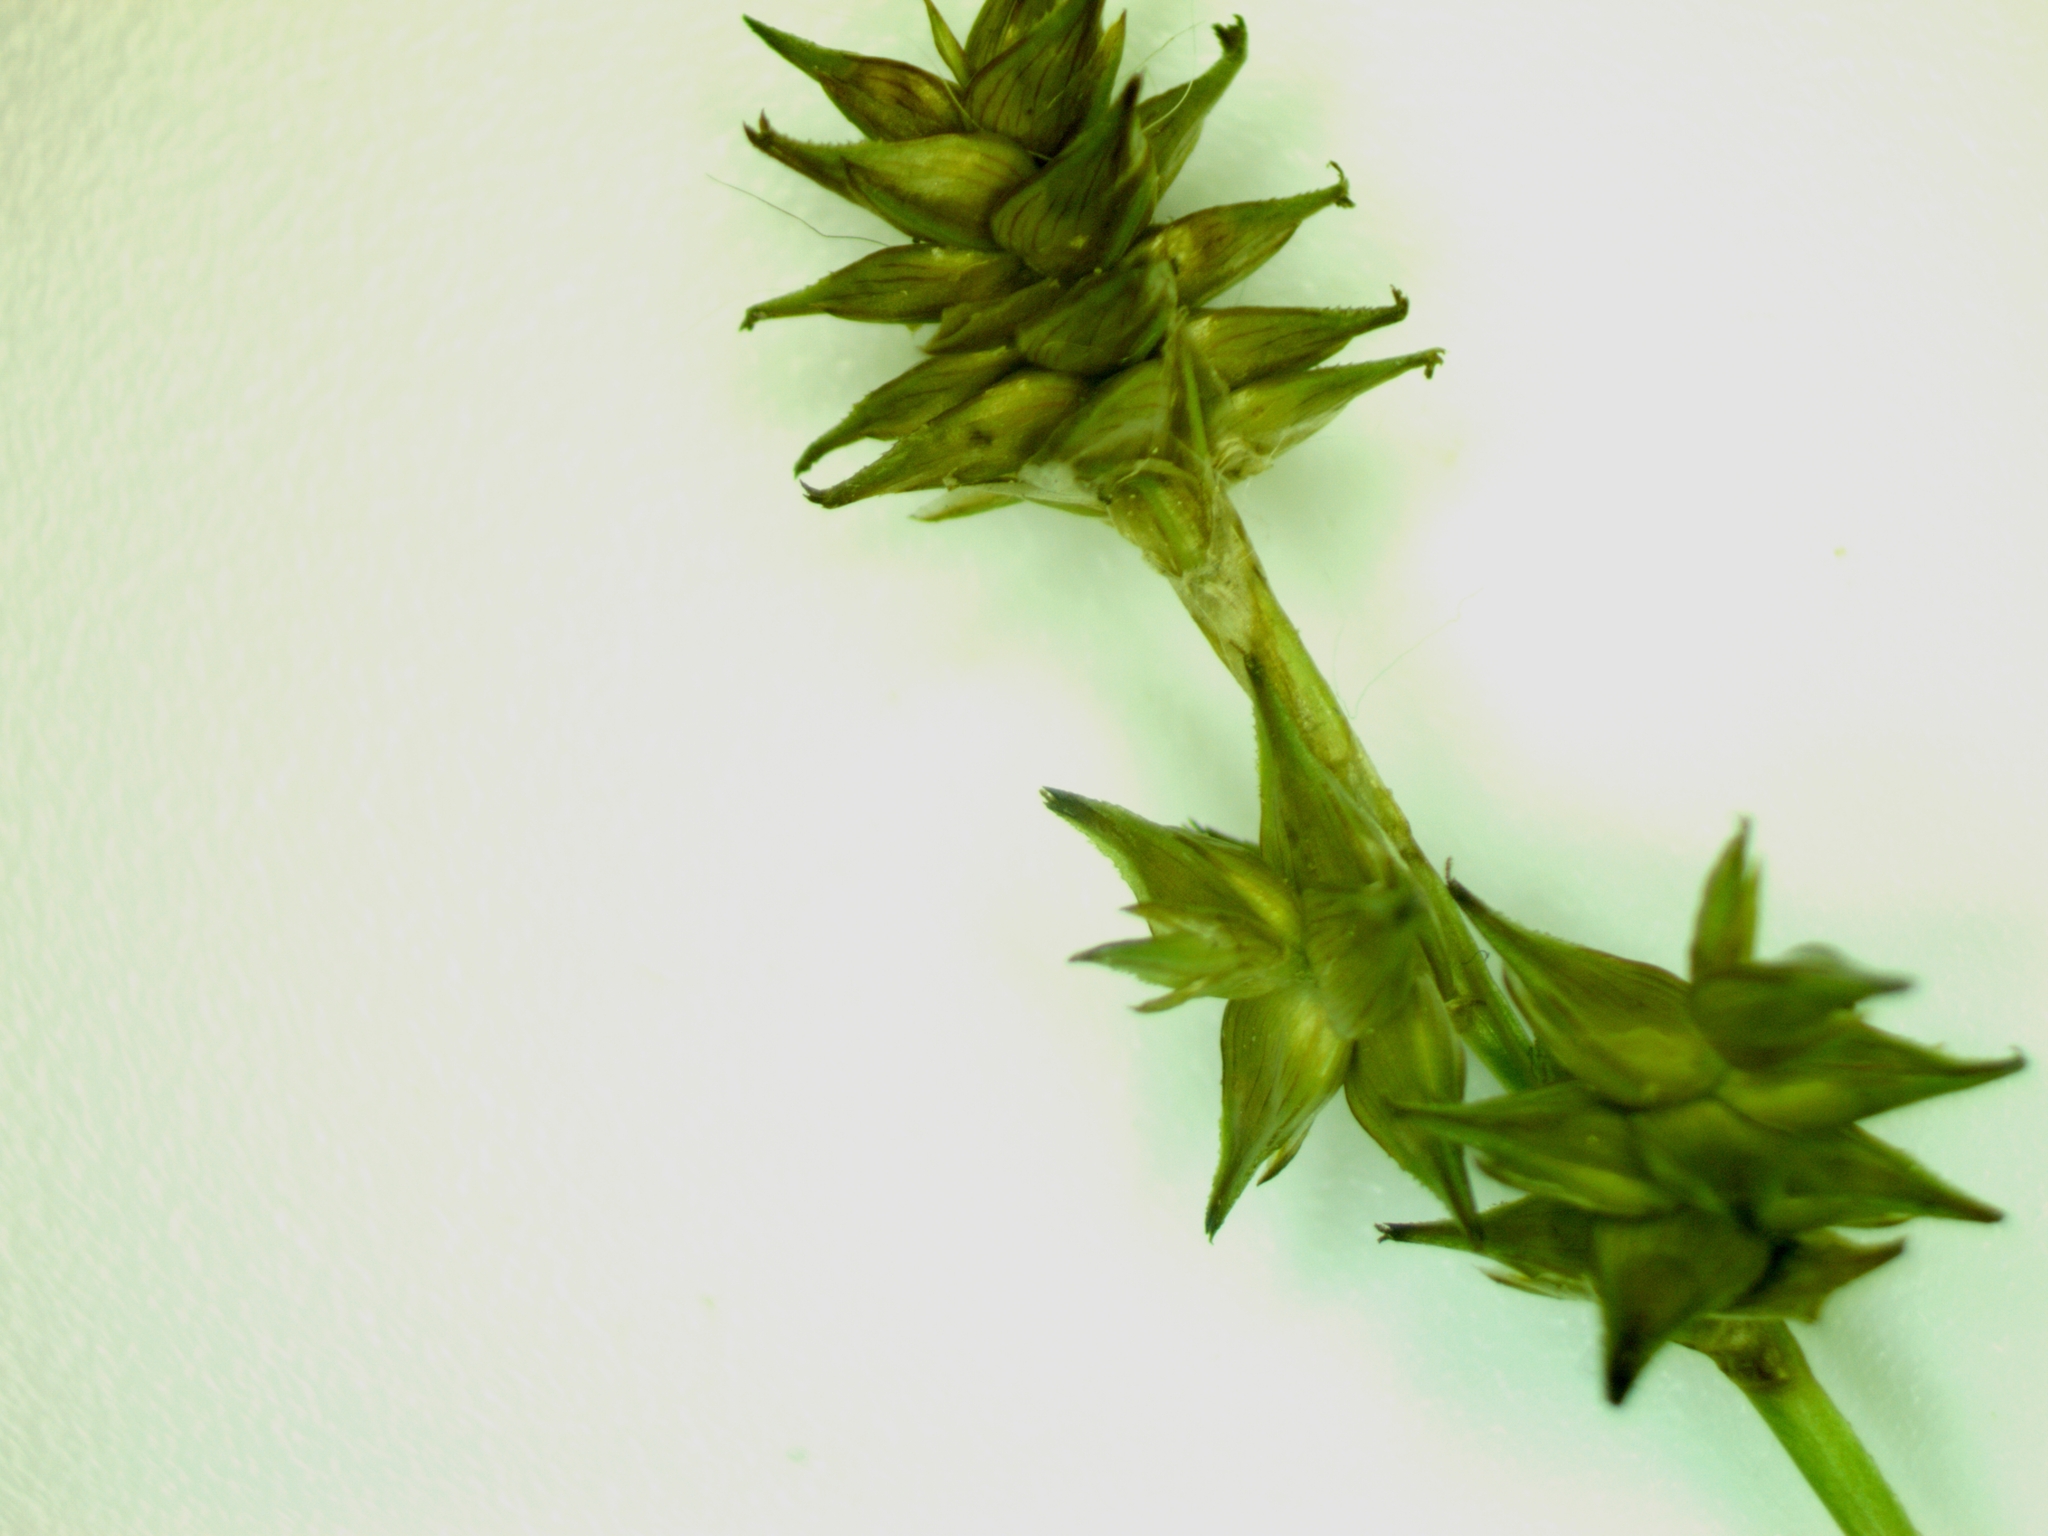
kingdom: Plantae
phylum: Tracheophyta
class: Liliopsida
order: Poales
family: Cyperaceae
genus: Carex
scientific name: Carex echinata
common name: Star sedge
